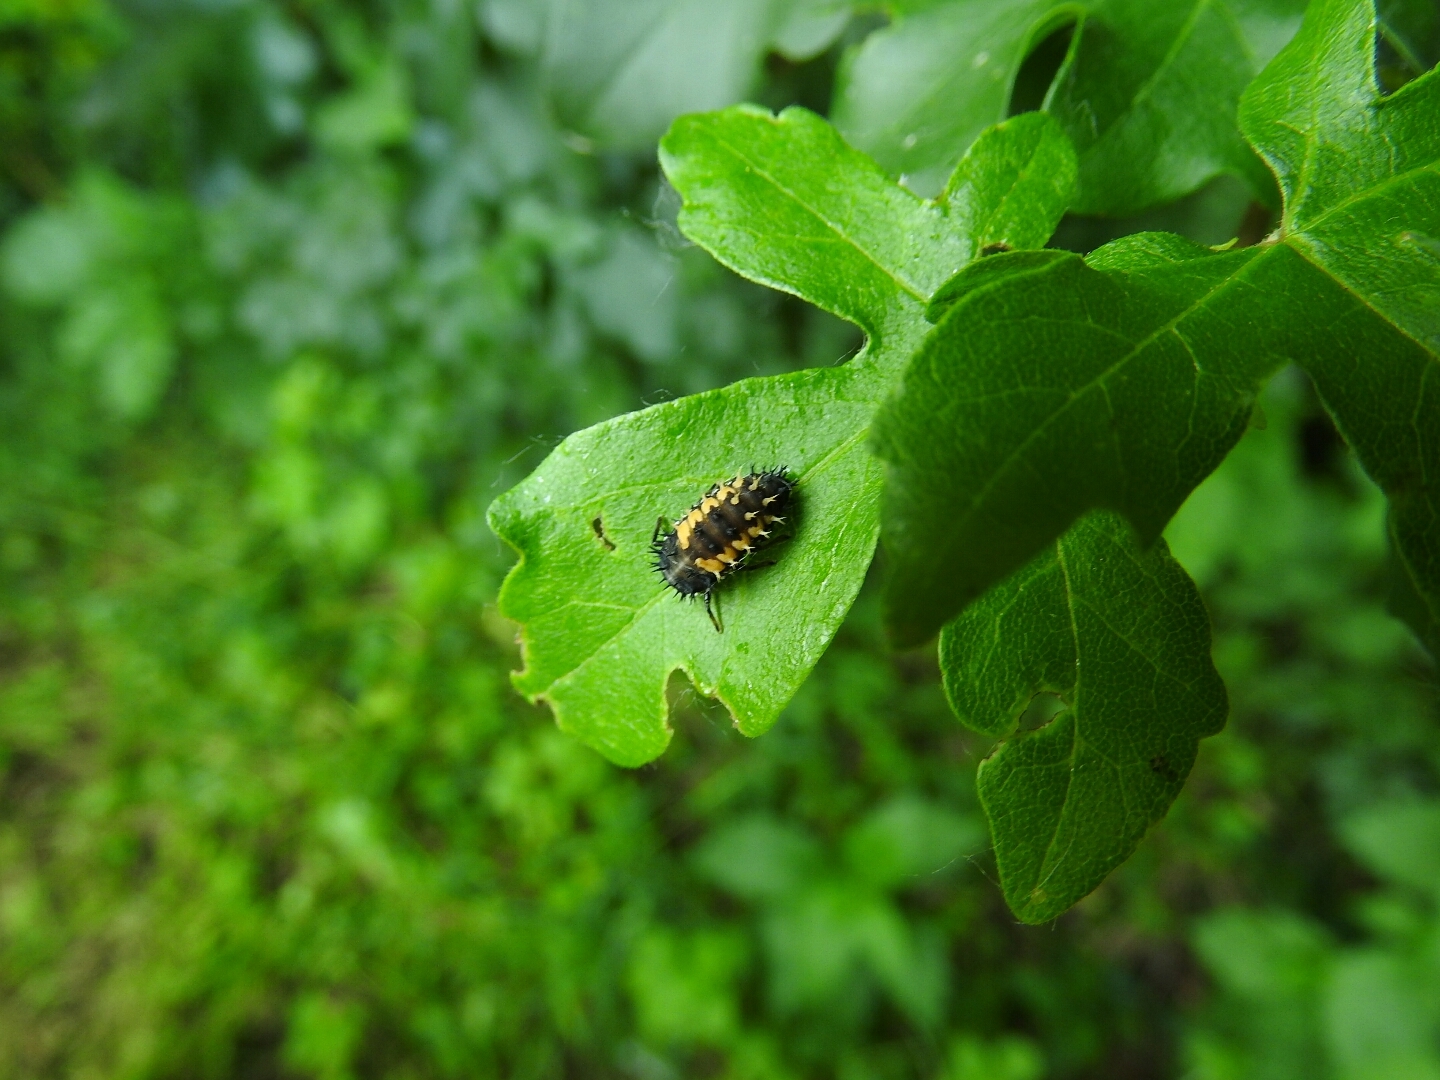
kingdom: Animalia
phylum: Arthropoda
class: Insecta
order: Coleoptera
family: Coccinellidae
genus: Harmonia
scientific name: Harmonia axyridis
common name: Harlequin ladybird
